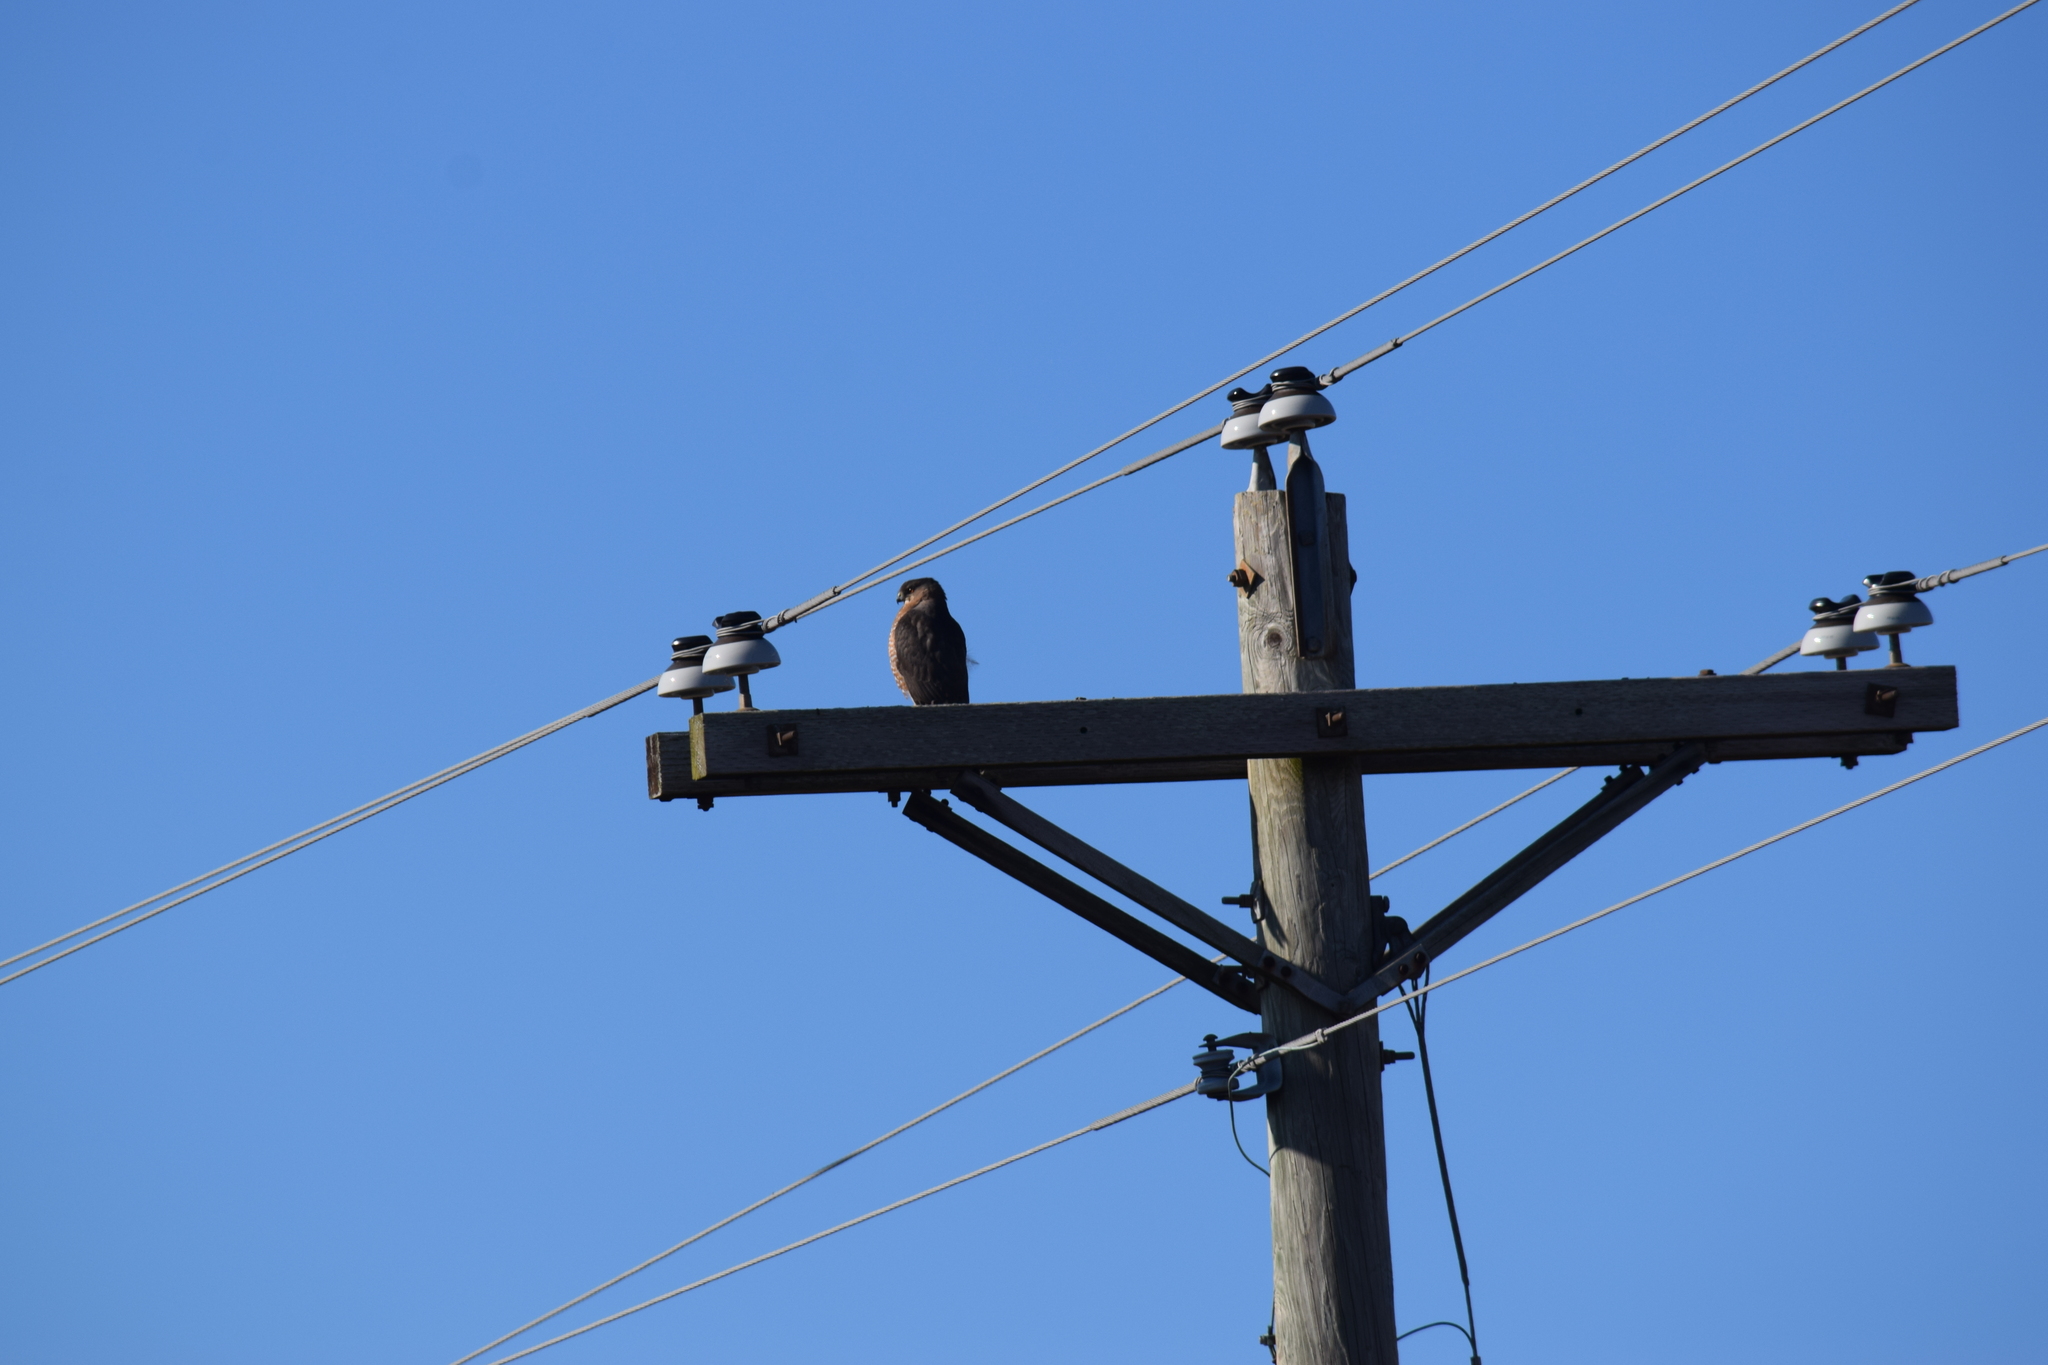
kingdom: Animalia
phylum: Chordata
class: Aves
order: Accipitriformes
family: Accipitridae
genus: Accipiter
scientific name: Accipiter cooperii
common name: Cooper's hawk
